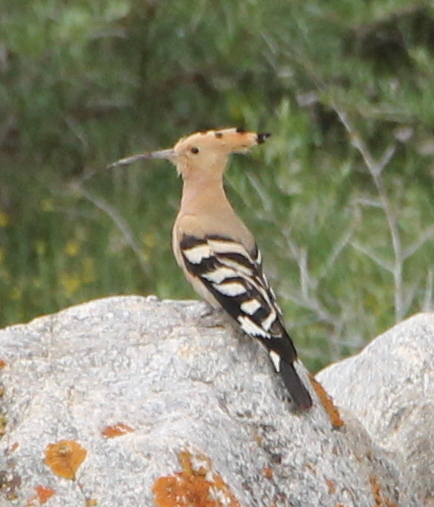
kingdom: Animalia
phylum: Chordata
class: Aves
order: Bucerotiformes
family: Upupidae
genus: Upupa
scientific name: Upupa epops
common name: Eurasian hoopoe
